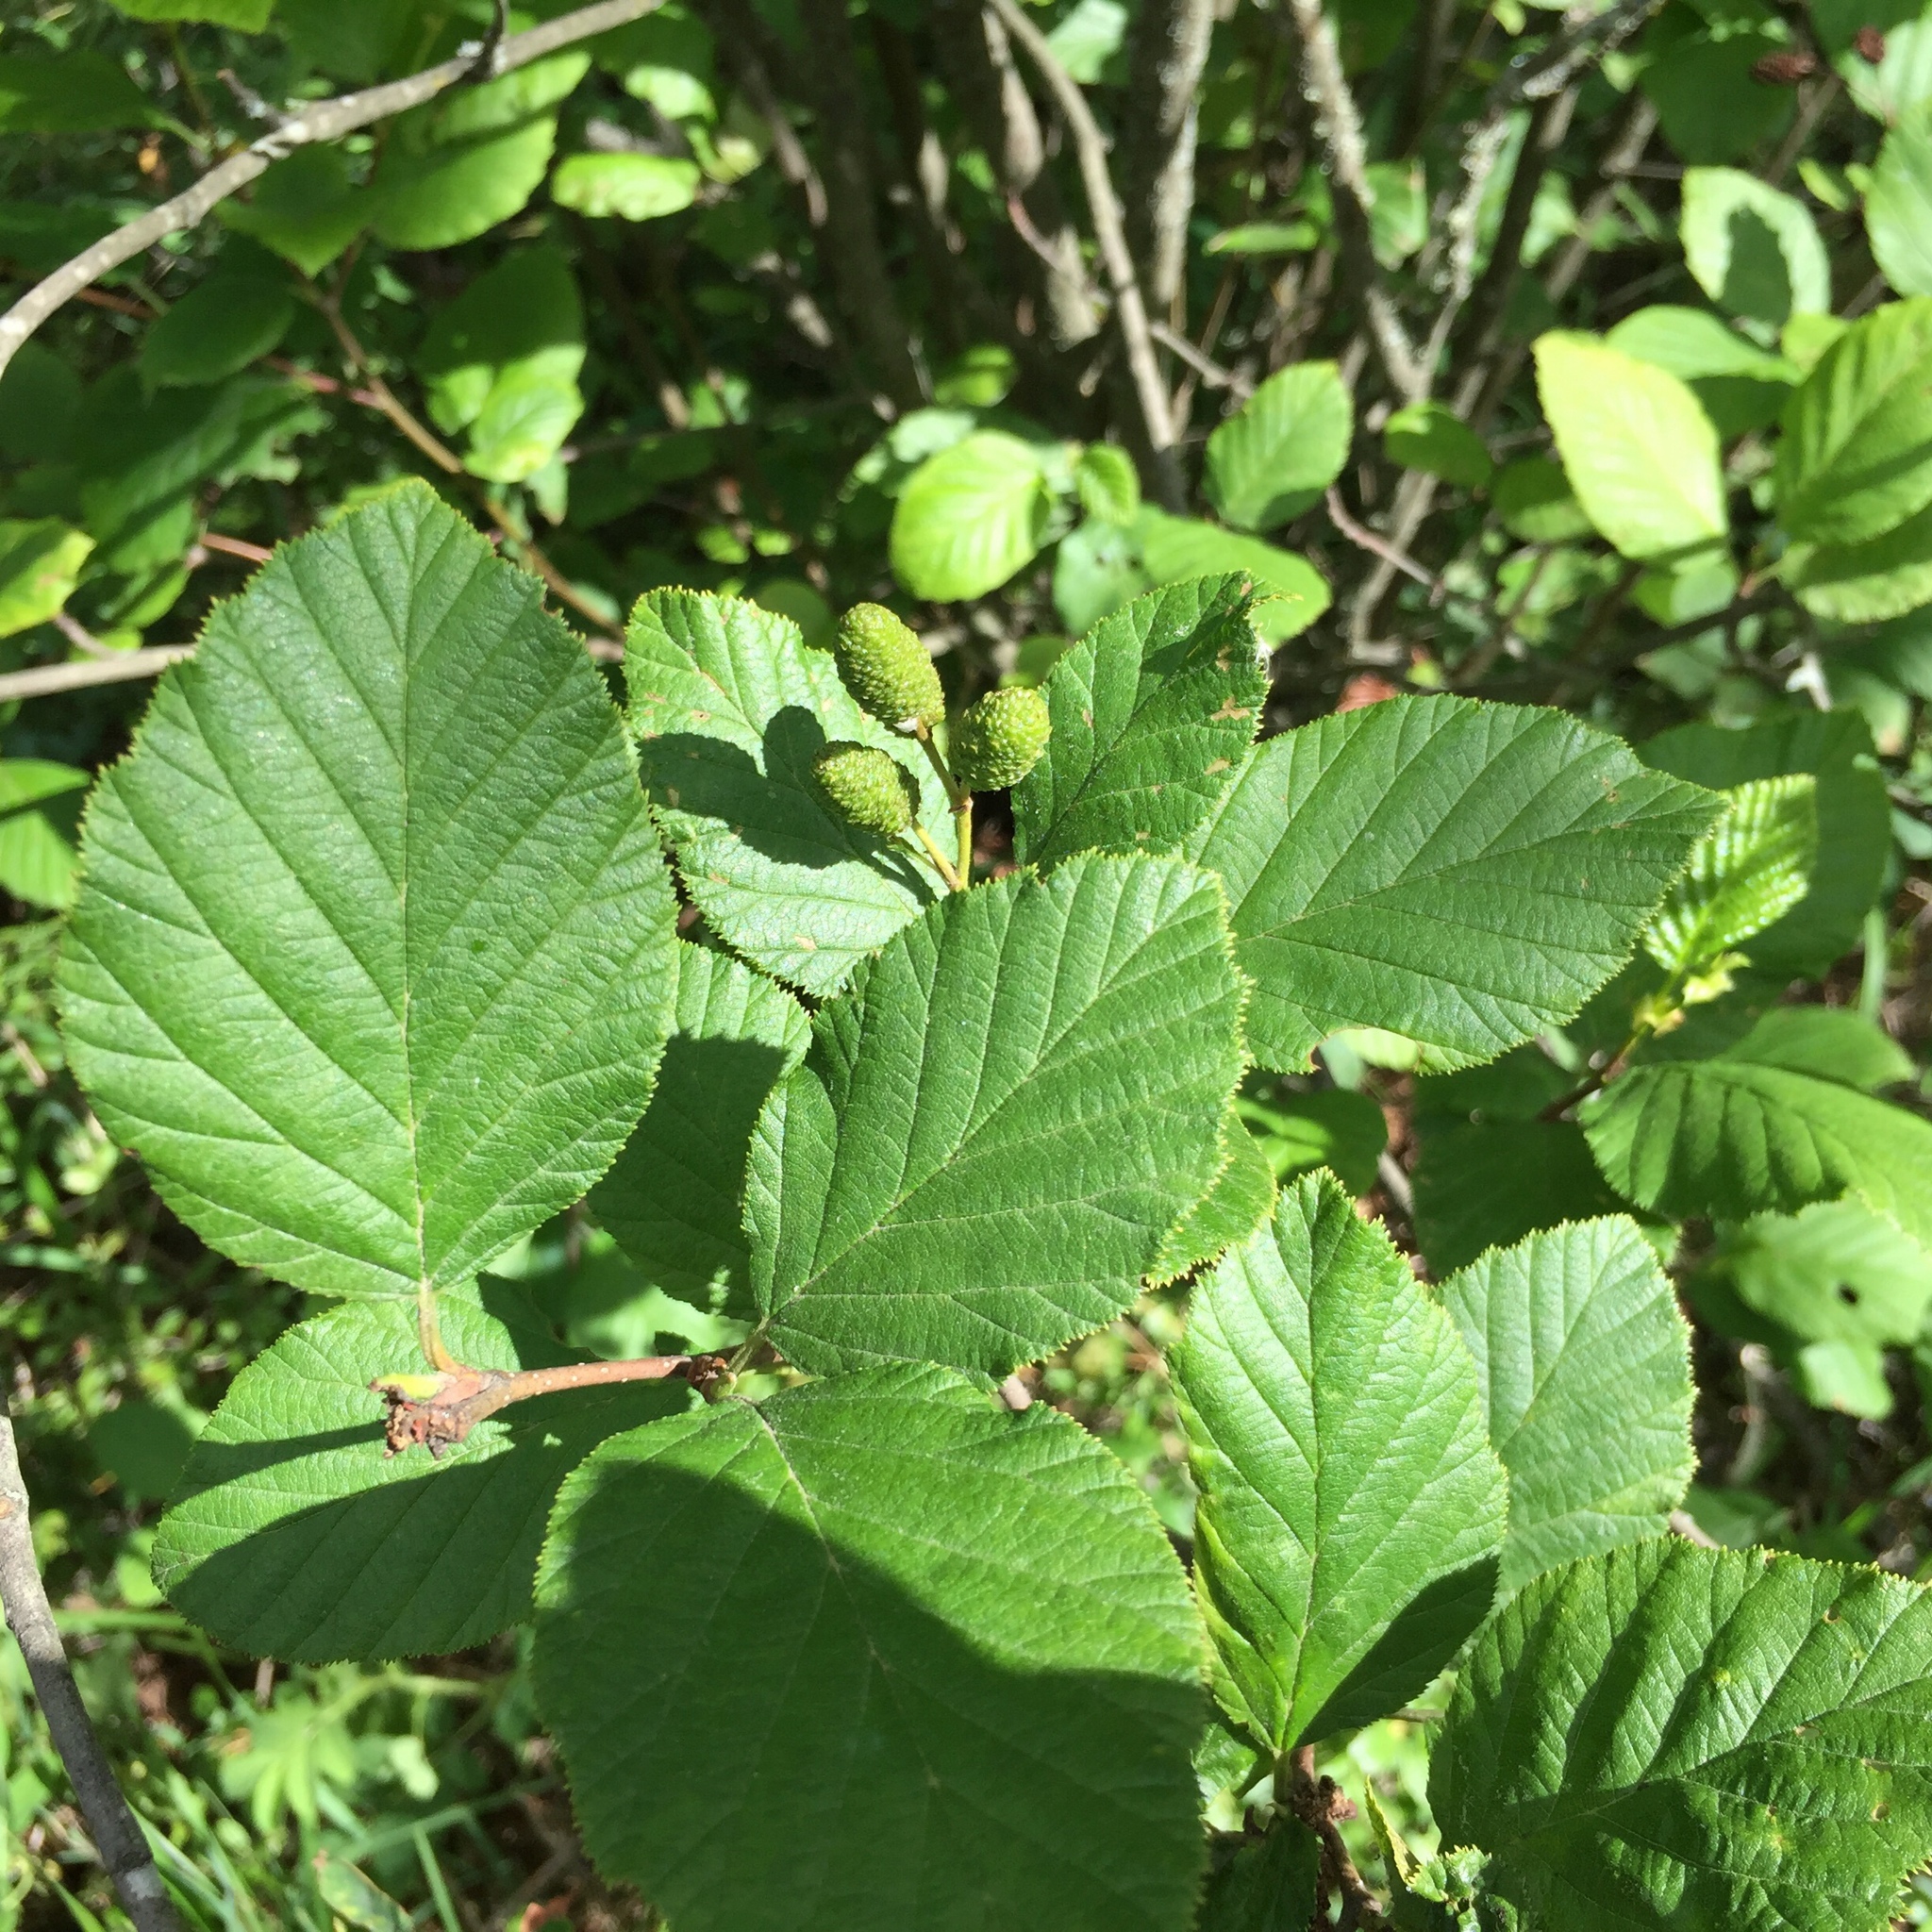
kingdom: Plantae
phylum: Tracheophyta
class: Magnoliopsida
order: Fagales
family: Betulaceae
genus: Alnus
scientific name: Alnus alnobetula
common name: Green alder
